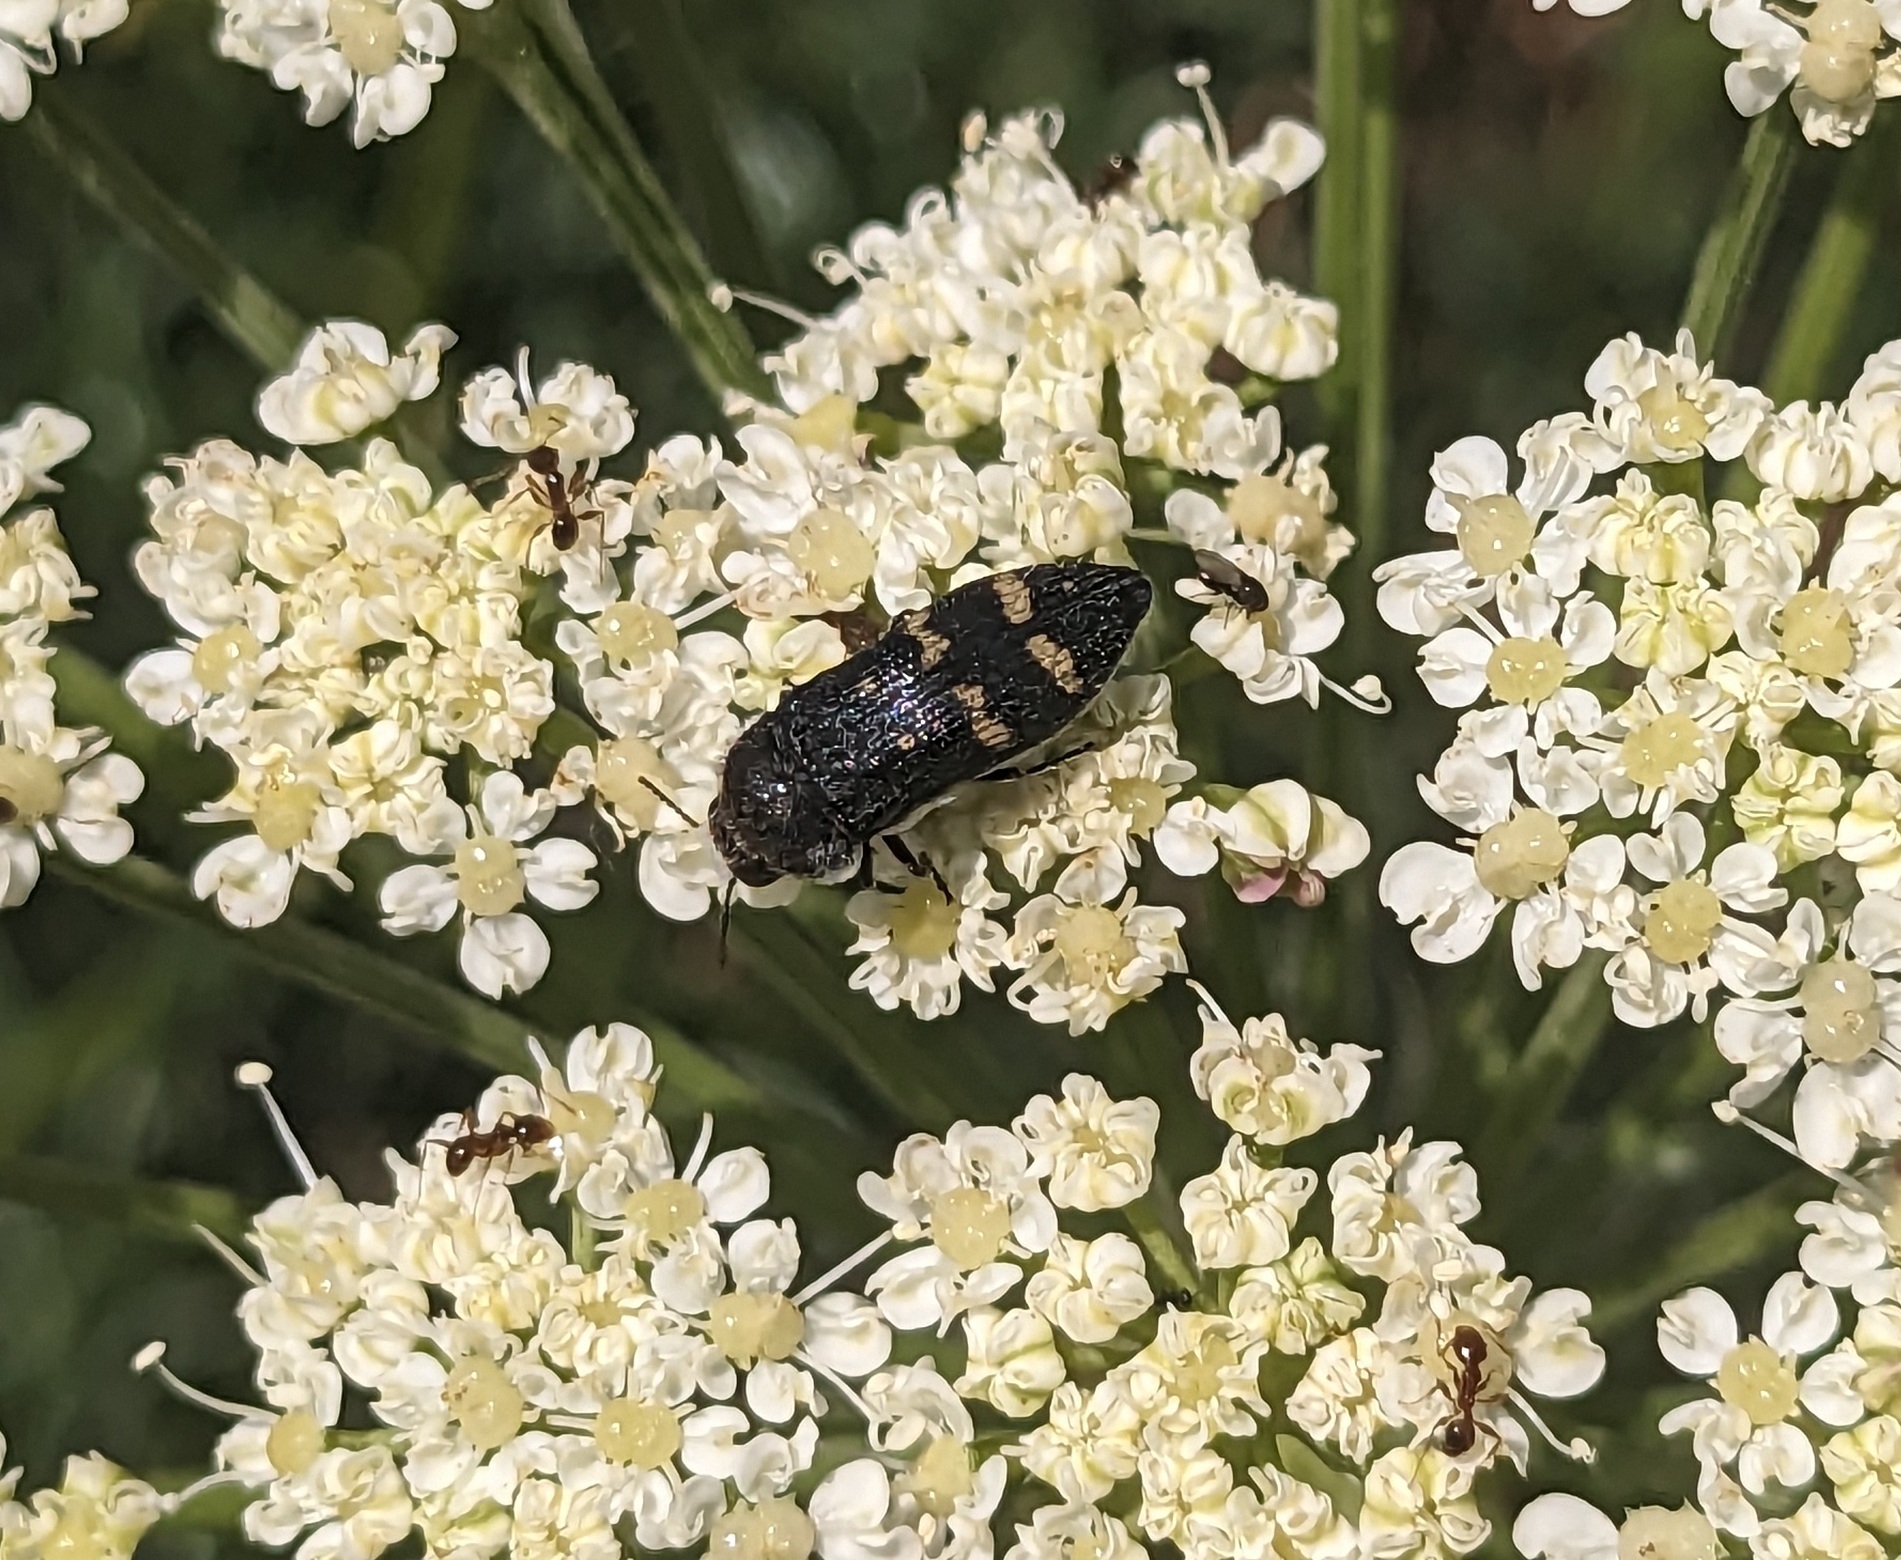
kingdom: Animalia
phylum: Arthropoda
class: Insecta
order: Coleoptera
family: Buprestidae
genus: Acmaeoderella
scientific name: Acmaeoderella flavofasciata
